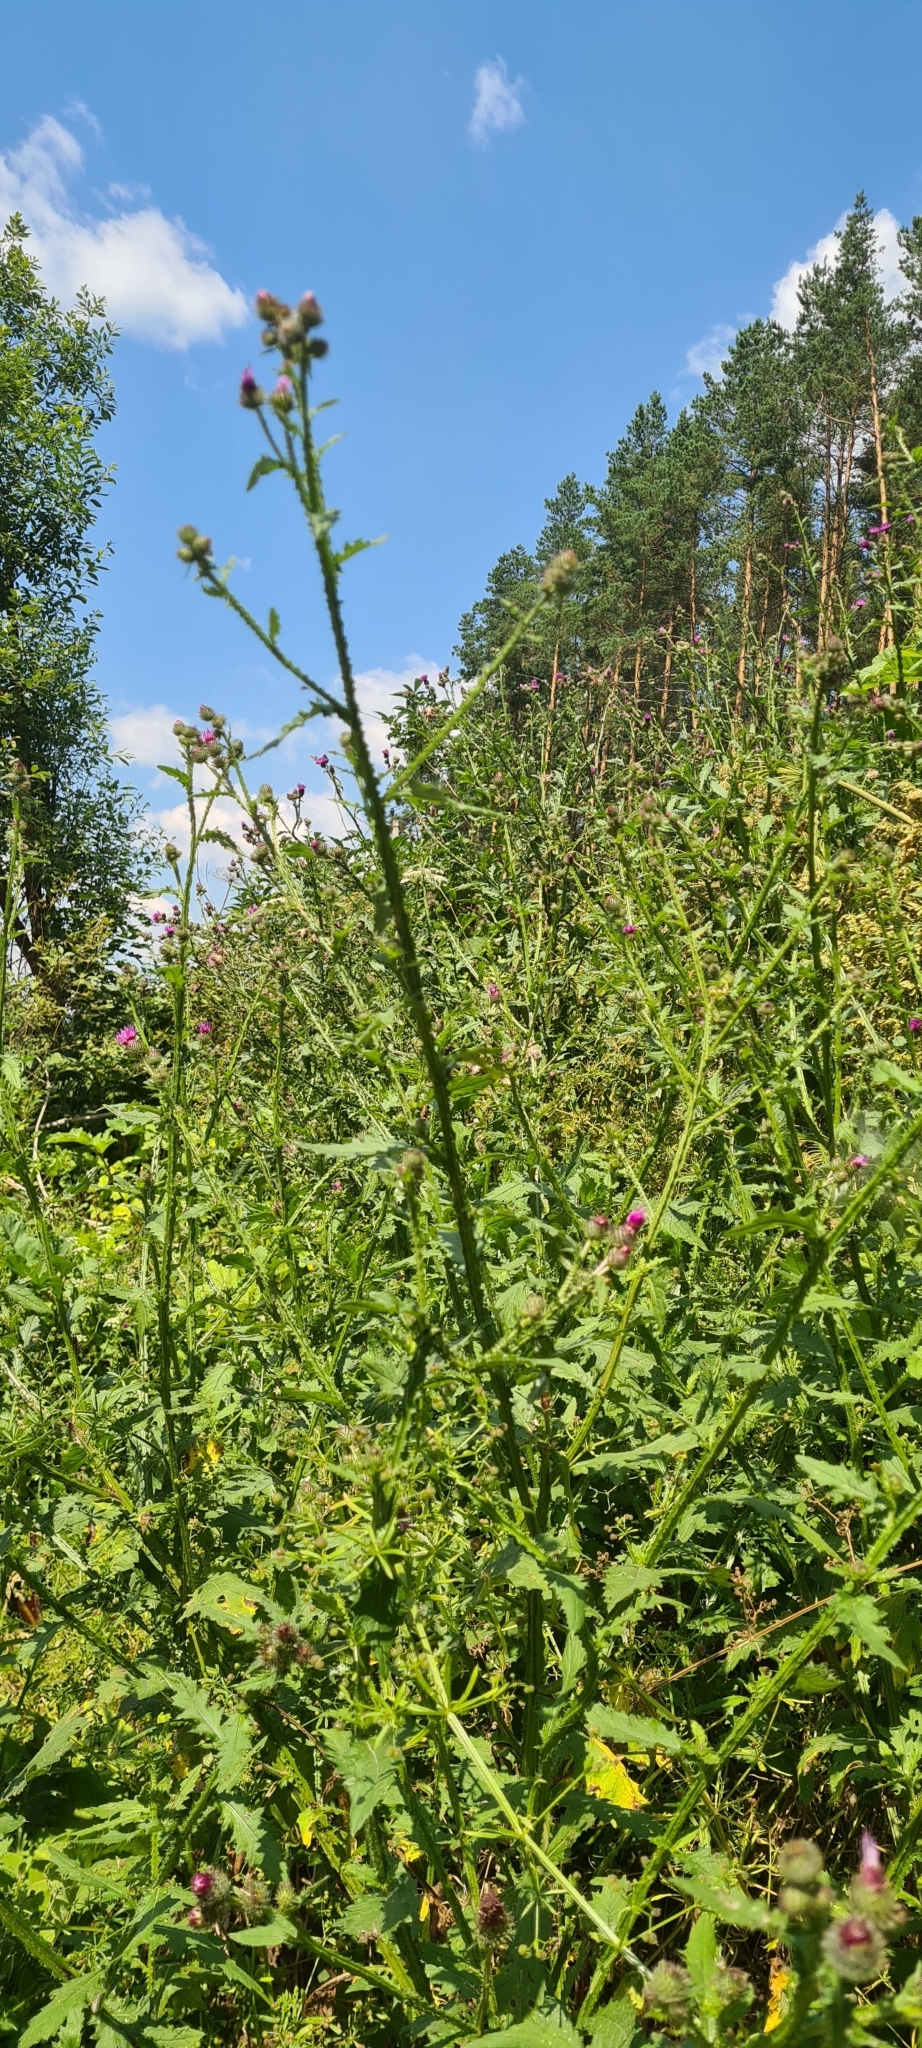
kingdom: Plantae
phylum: Tracheophyta
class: Magnoliopsida
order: Asterales
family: Asteraceae
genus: Carduus
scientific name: Carduus crispus
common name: Welted thistle
